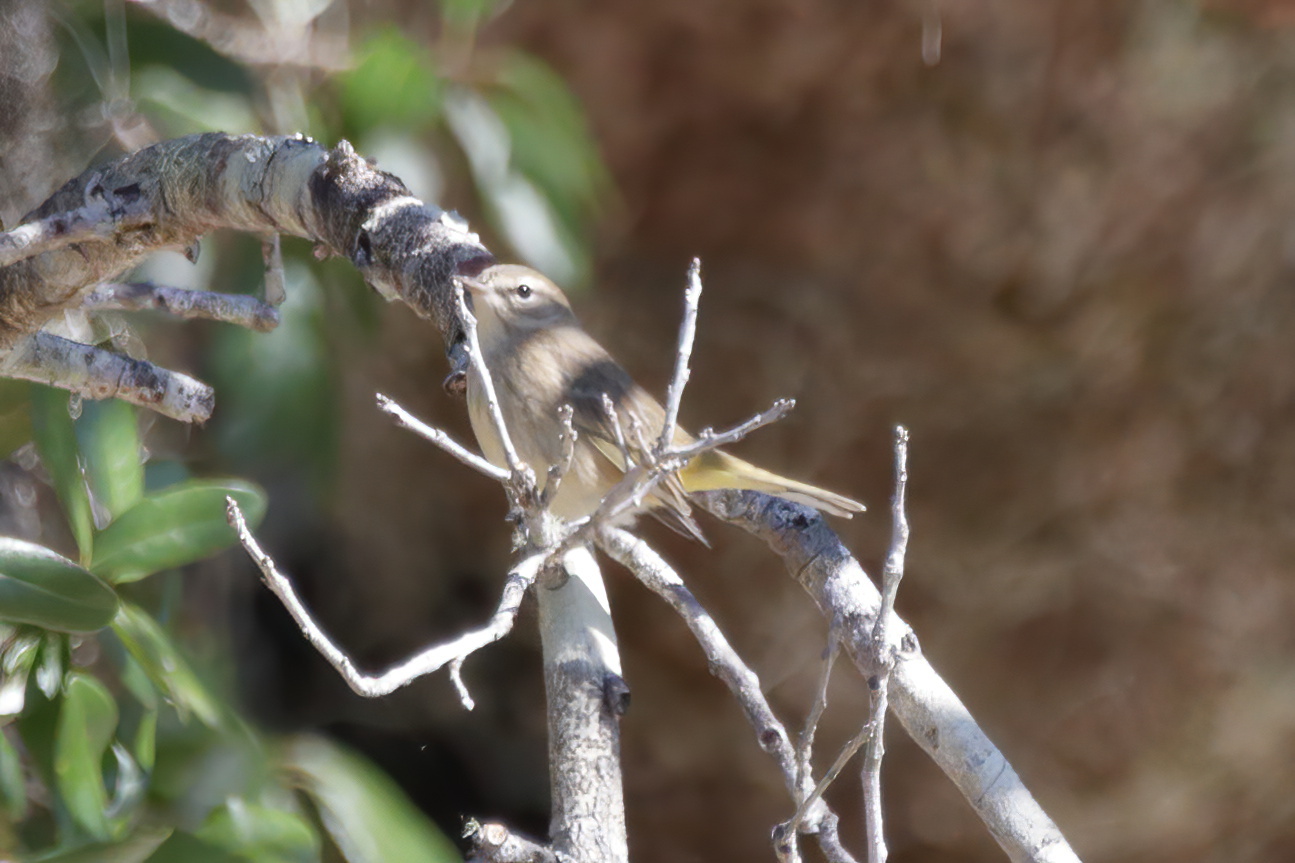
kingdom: Animalia
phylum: Chordata
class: Aves
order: Passeriformes
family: Parulidae
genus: Setophaga
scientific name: Setophaga palmarum
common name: Palm warbler
